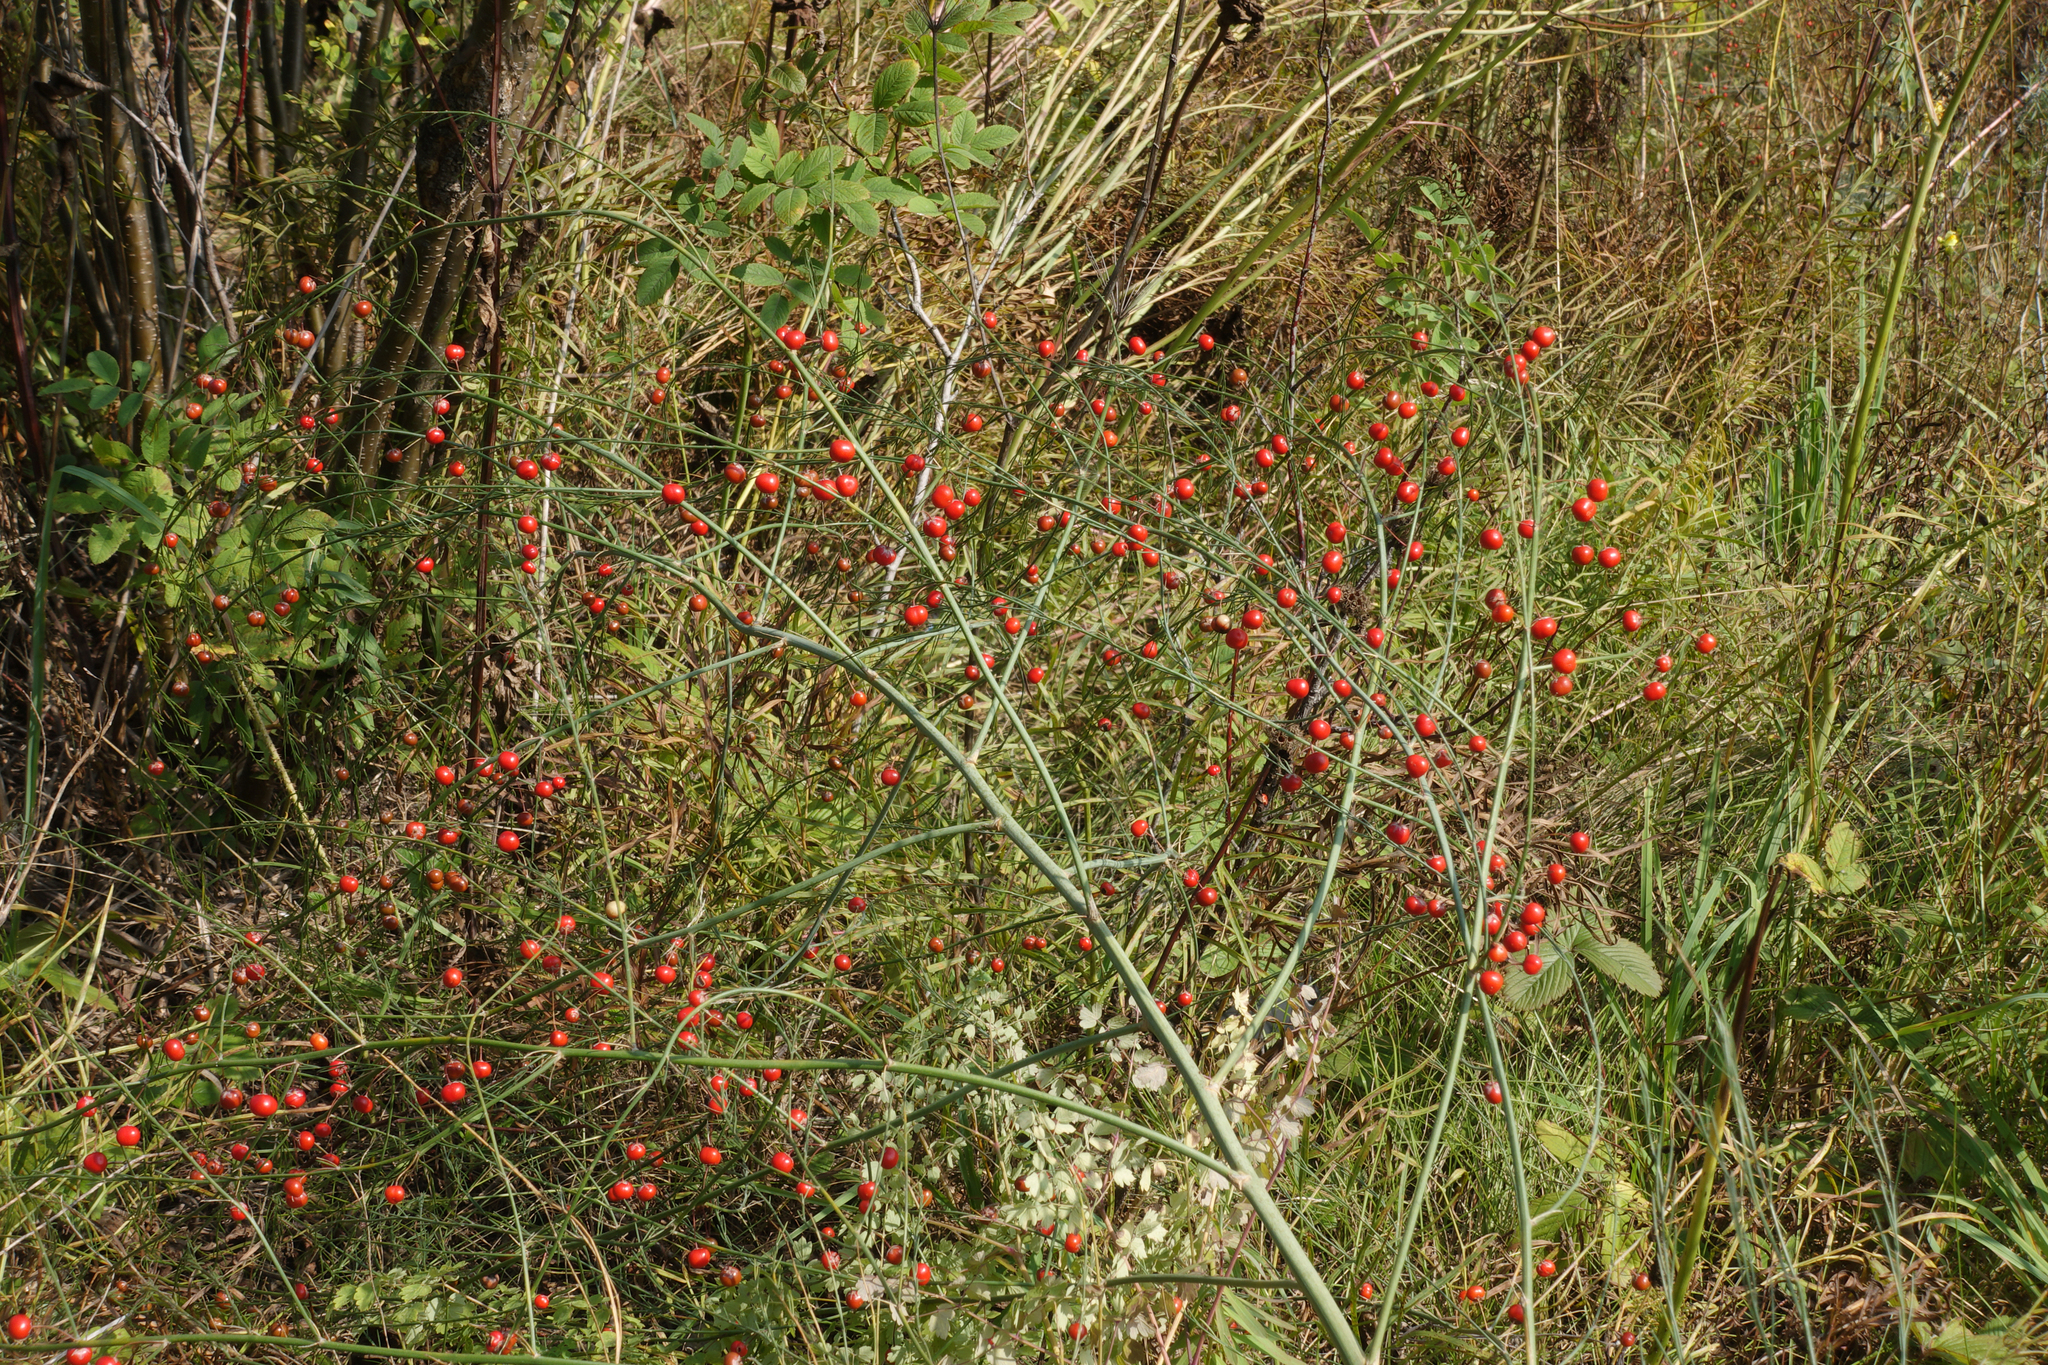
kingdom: Plantae
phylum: Tracheophyta
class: Liliopsida
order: Asparagales
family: Asparagaceae
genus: Asparagus
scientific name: Asparagus officinalis
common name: Garden asparagus
